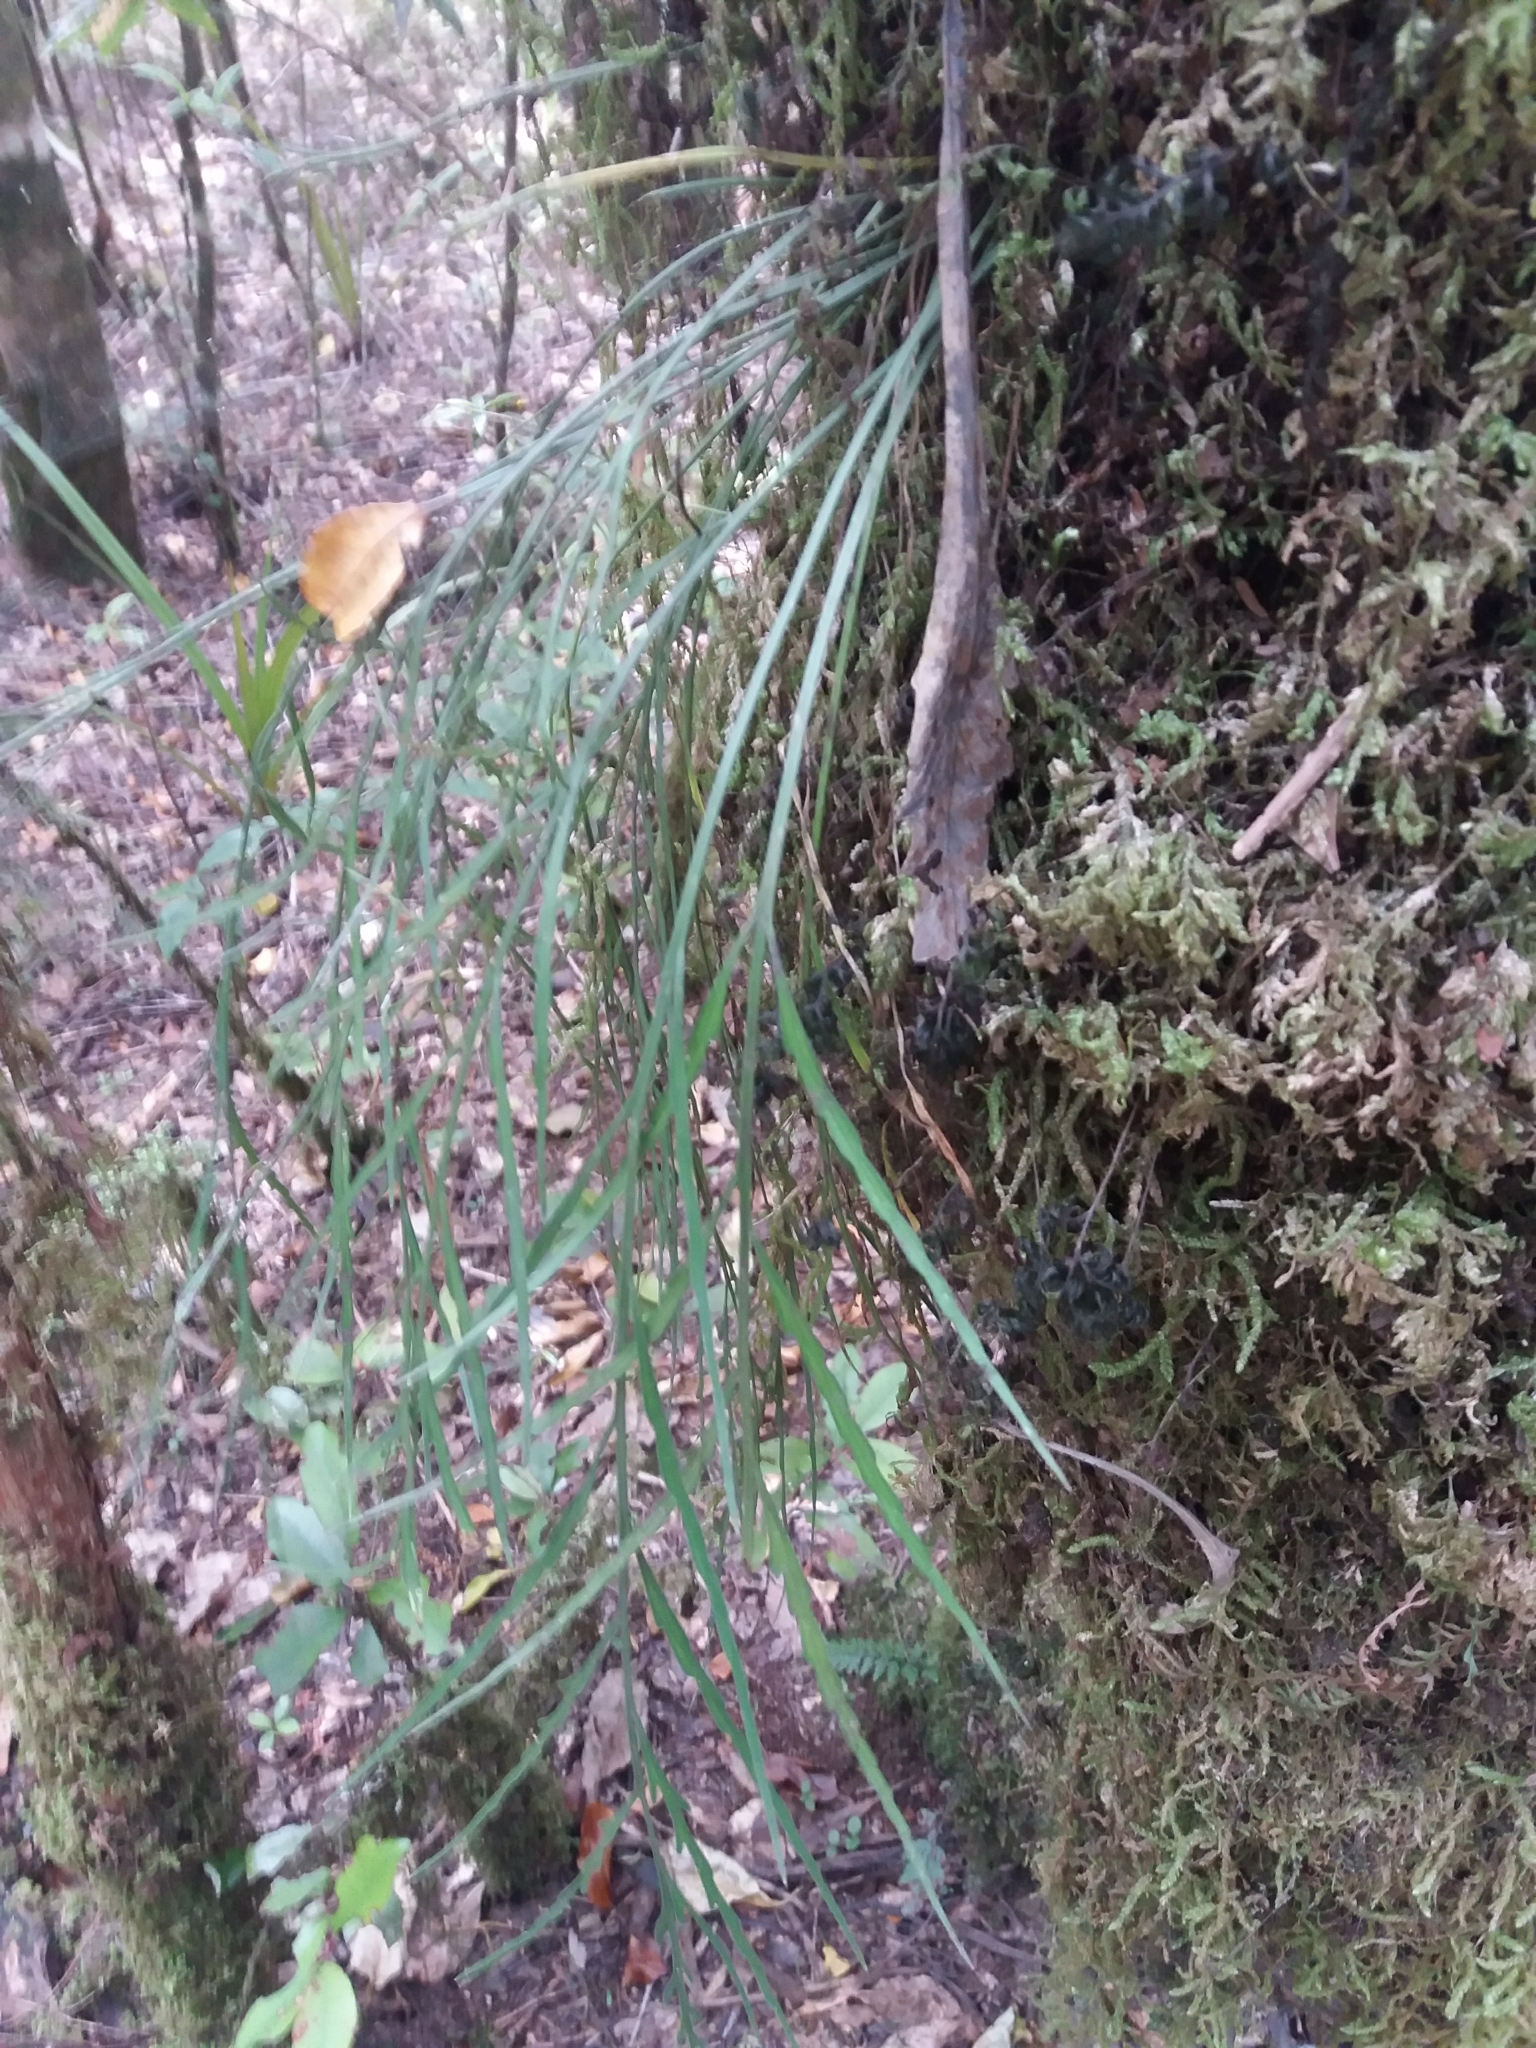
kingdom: Plantae
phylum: Tracheophyta
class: Polypodiopsida
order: Polypodiales
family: Aspleniaceae
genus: Asplenium
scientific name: Asplenium flaccidum
